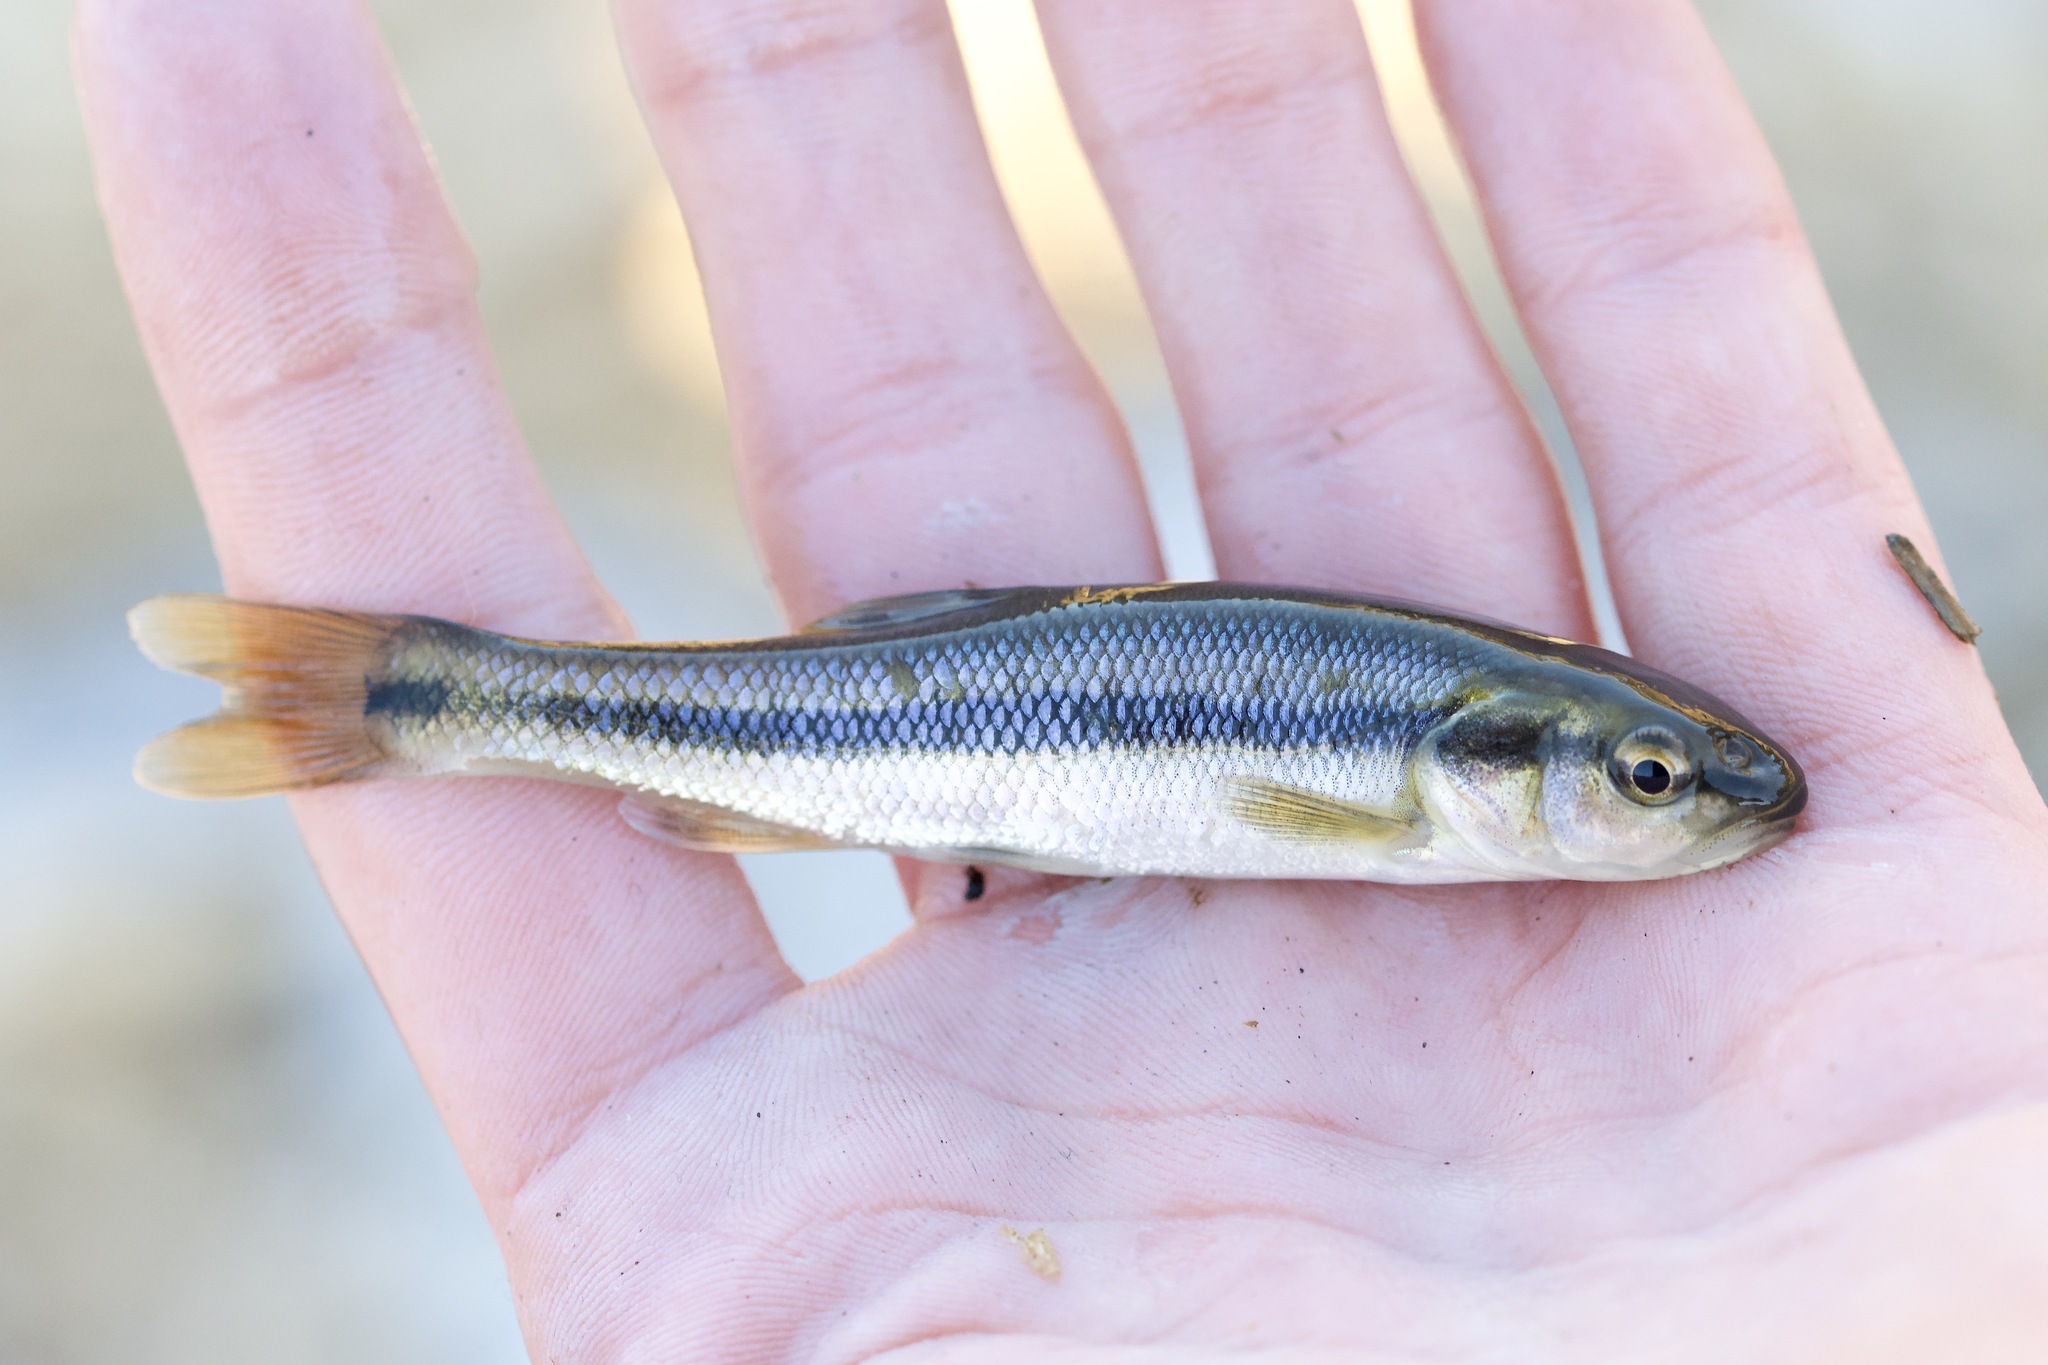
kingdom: Animalia
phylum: Chordata
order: Cypriniformes
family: Cyprinidae
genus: Semotilus
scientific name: Semotilus atromaculatus
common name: Creek chub
